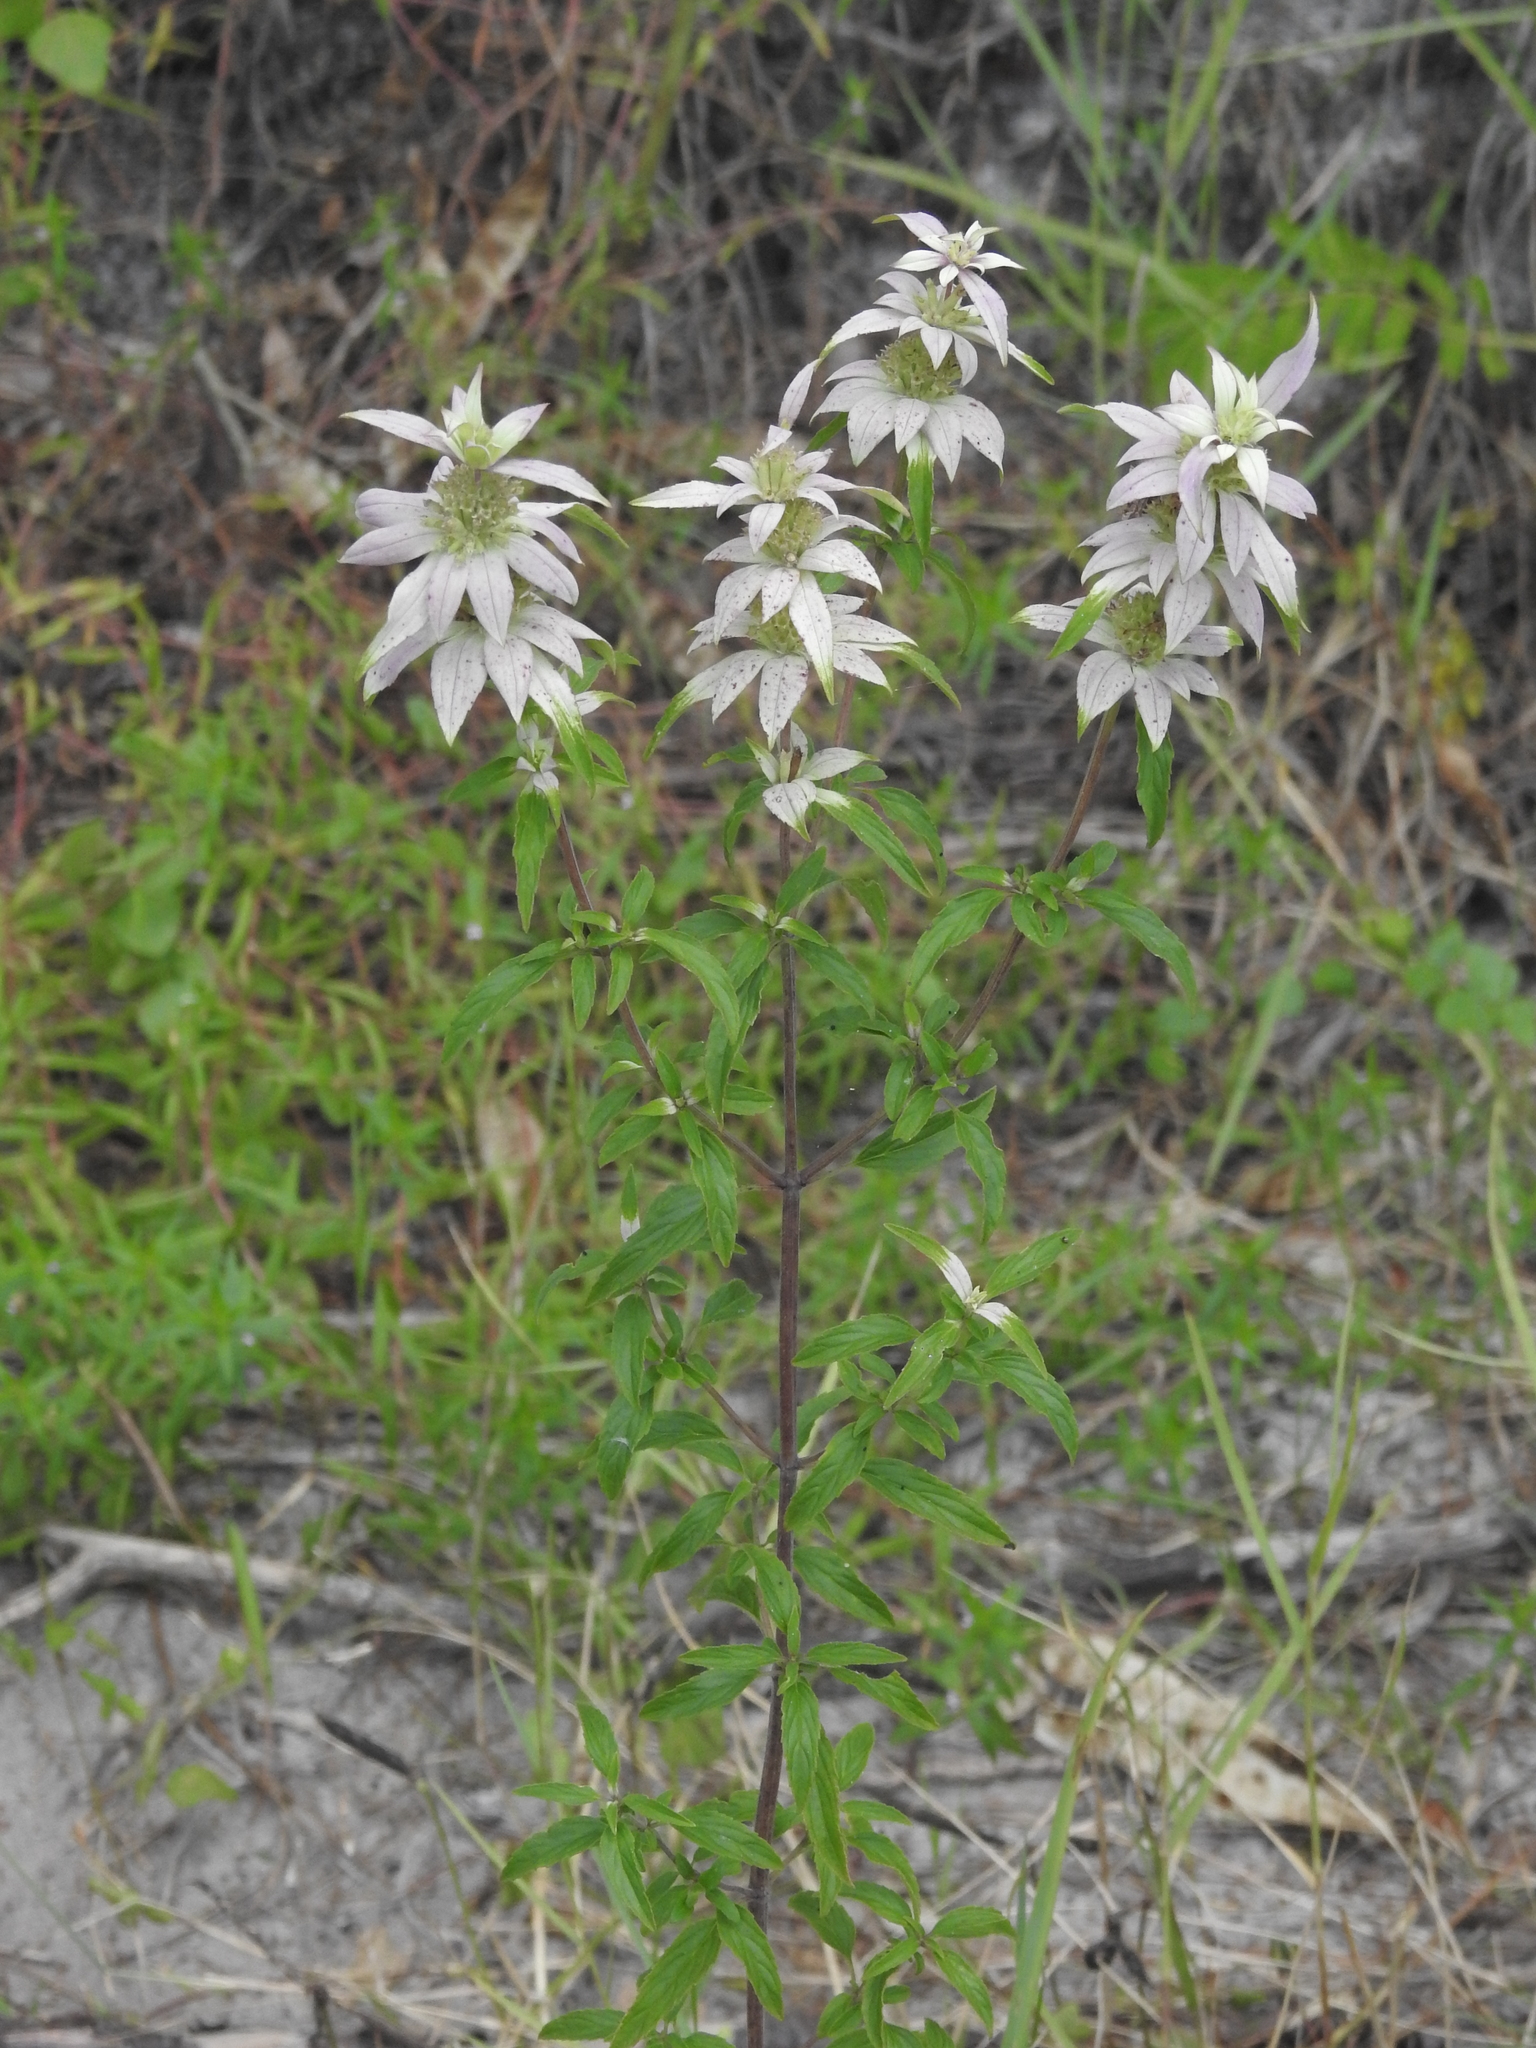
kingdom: Plantae
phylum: Tracheophyta
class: Magnoliopsida
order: Lamiales
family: Lamiaceae
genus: Monarda
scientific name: Monarda punctata
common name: Dotted monarda
